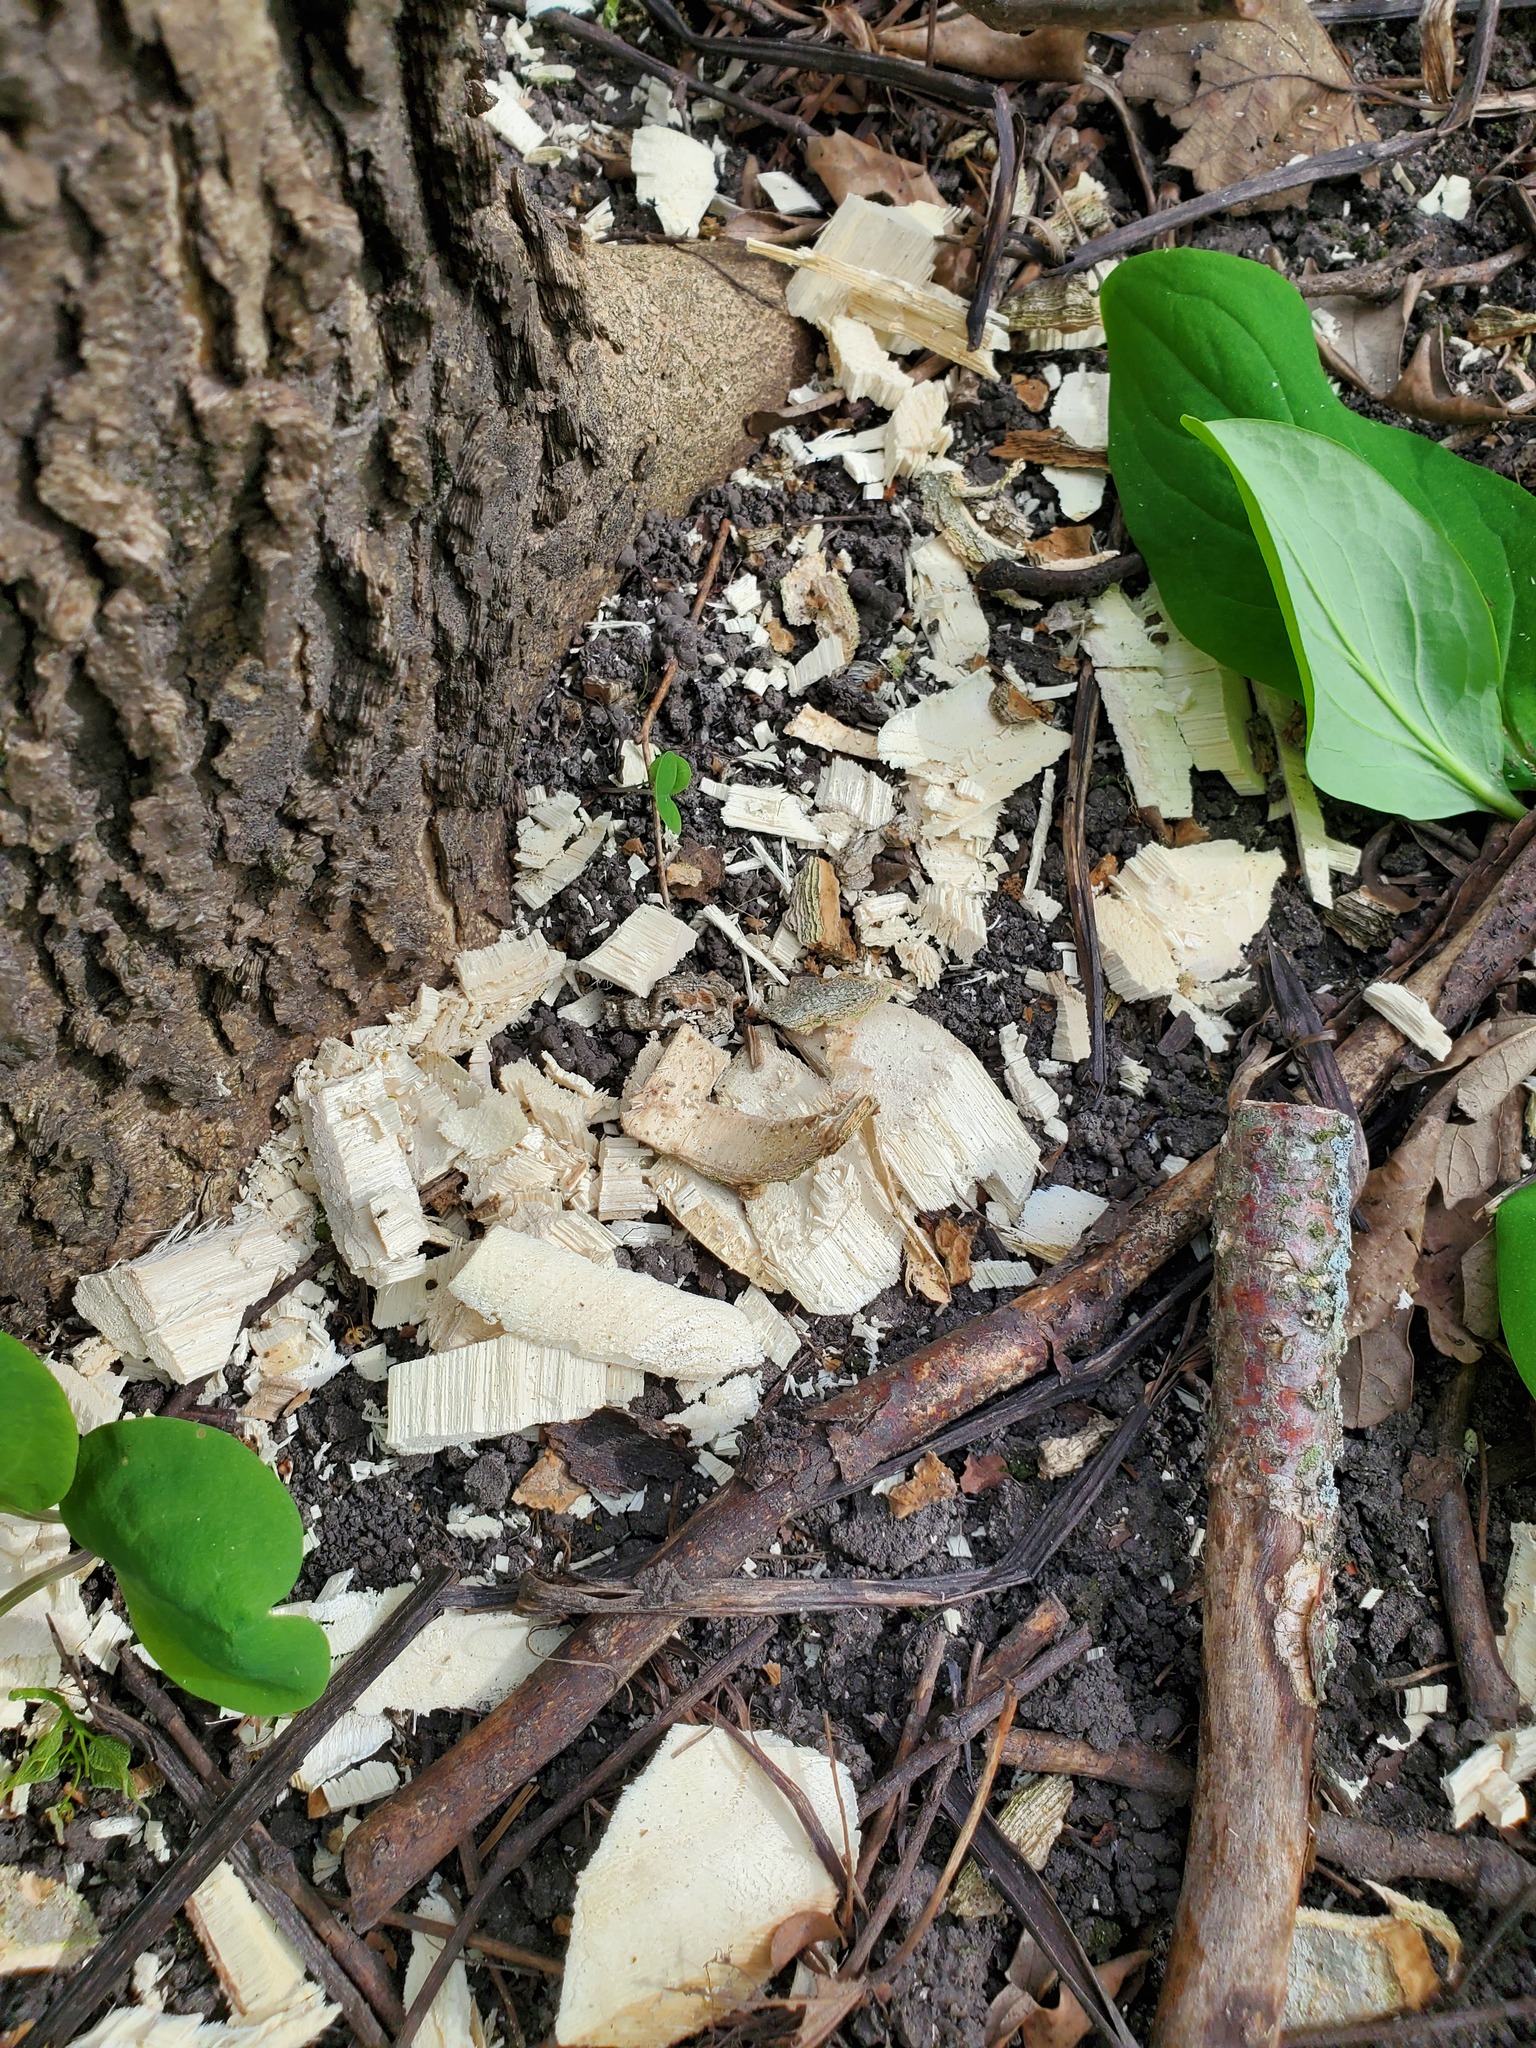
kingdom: Animalia
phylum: Chordata
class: Mammalia
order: Rodentia
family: Castoridae
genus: Castor
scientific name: Castor canadensis
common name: American beaver
